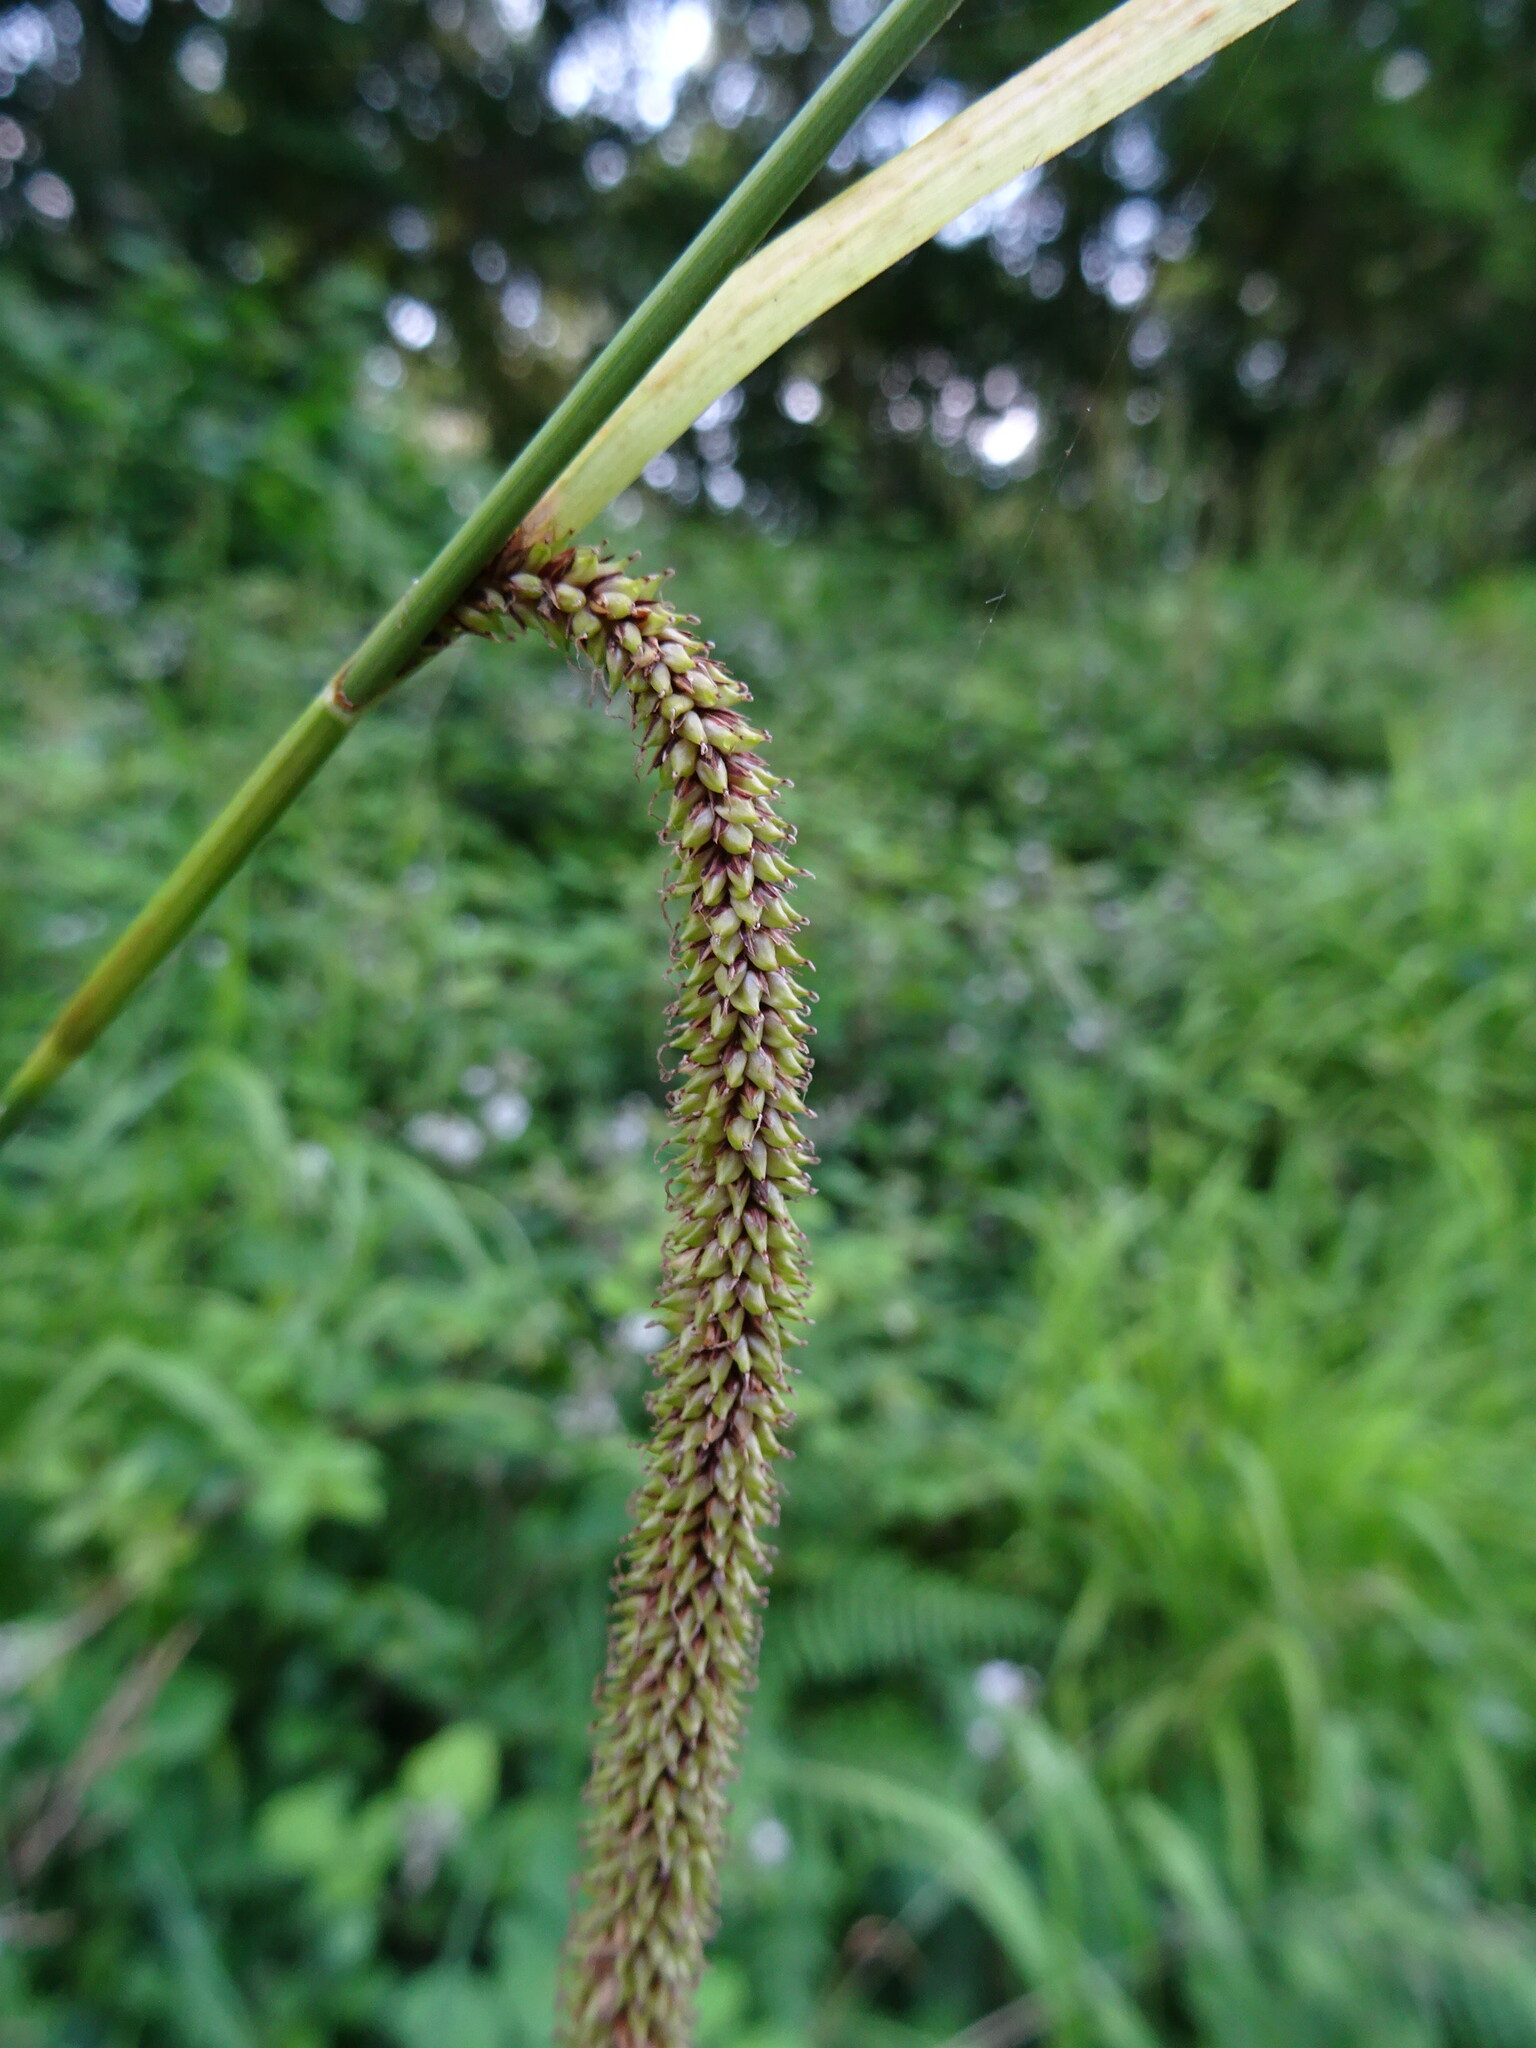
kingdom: Plantae
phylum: Tracheophyta
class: Liliopsida
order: Poales
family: Cyperaceae
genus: Carex
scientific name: Carex pendula
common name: Pendulous sedge
